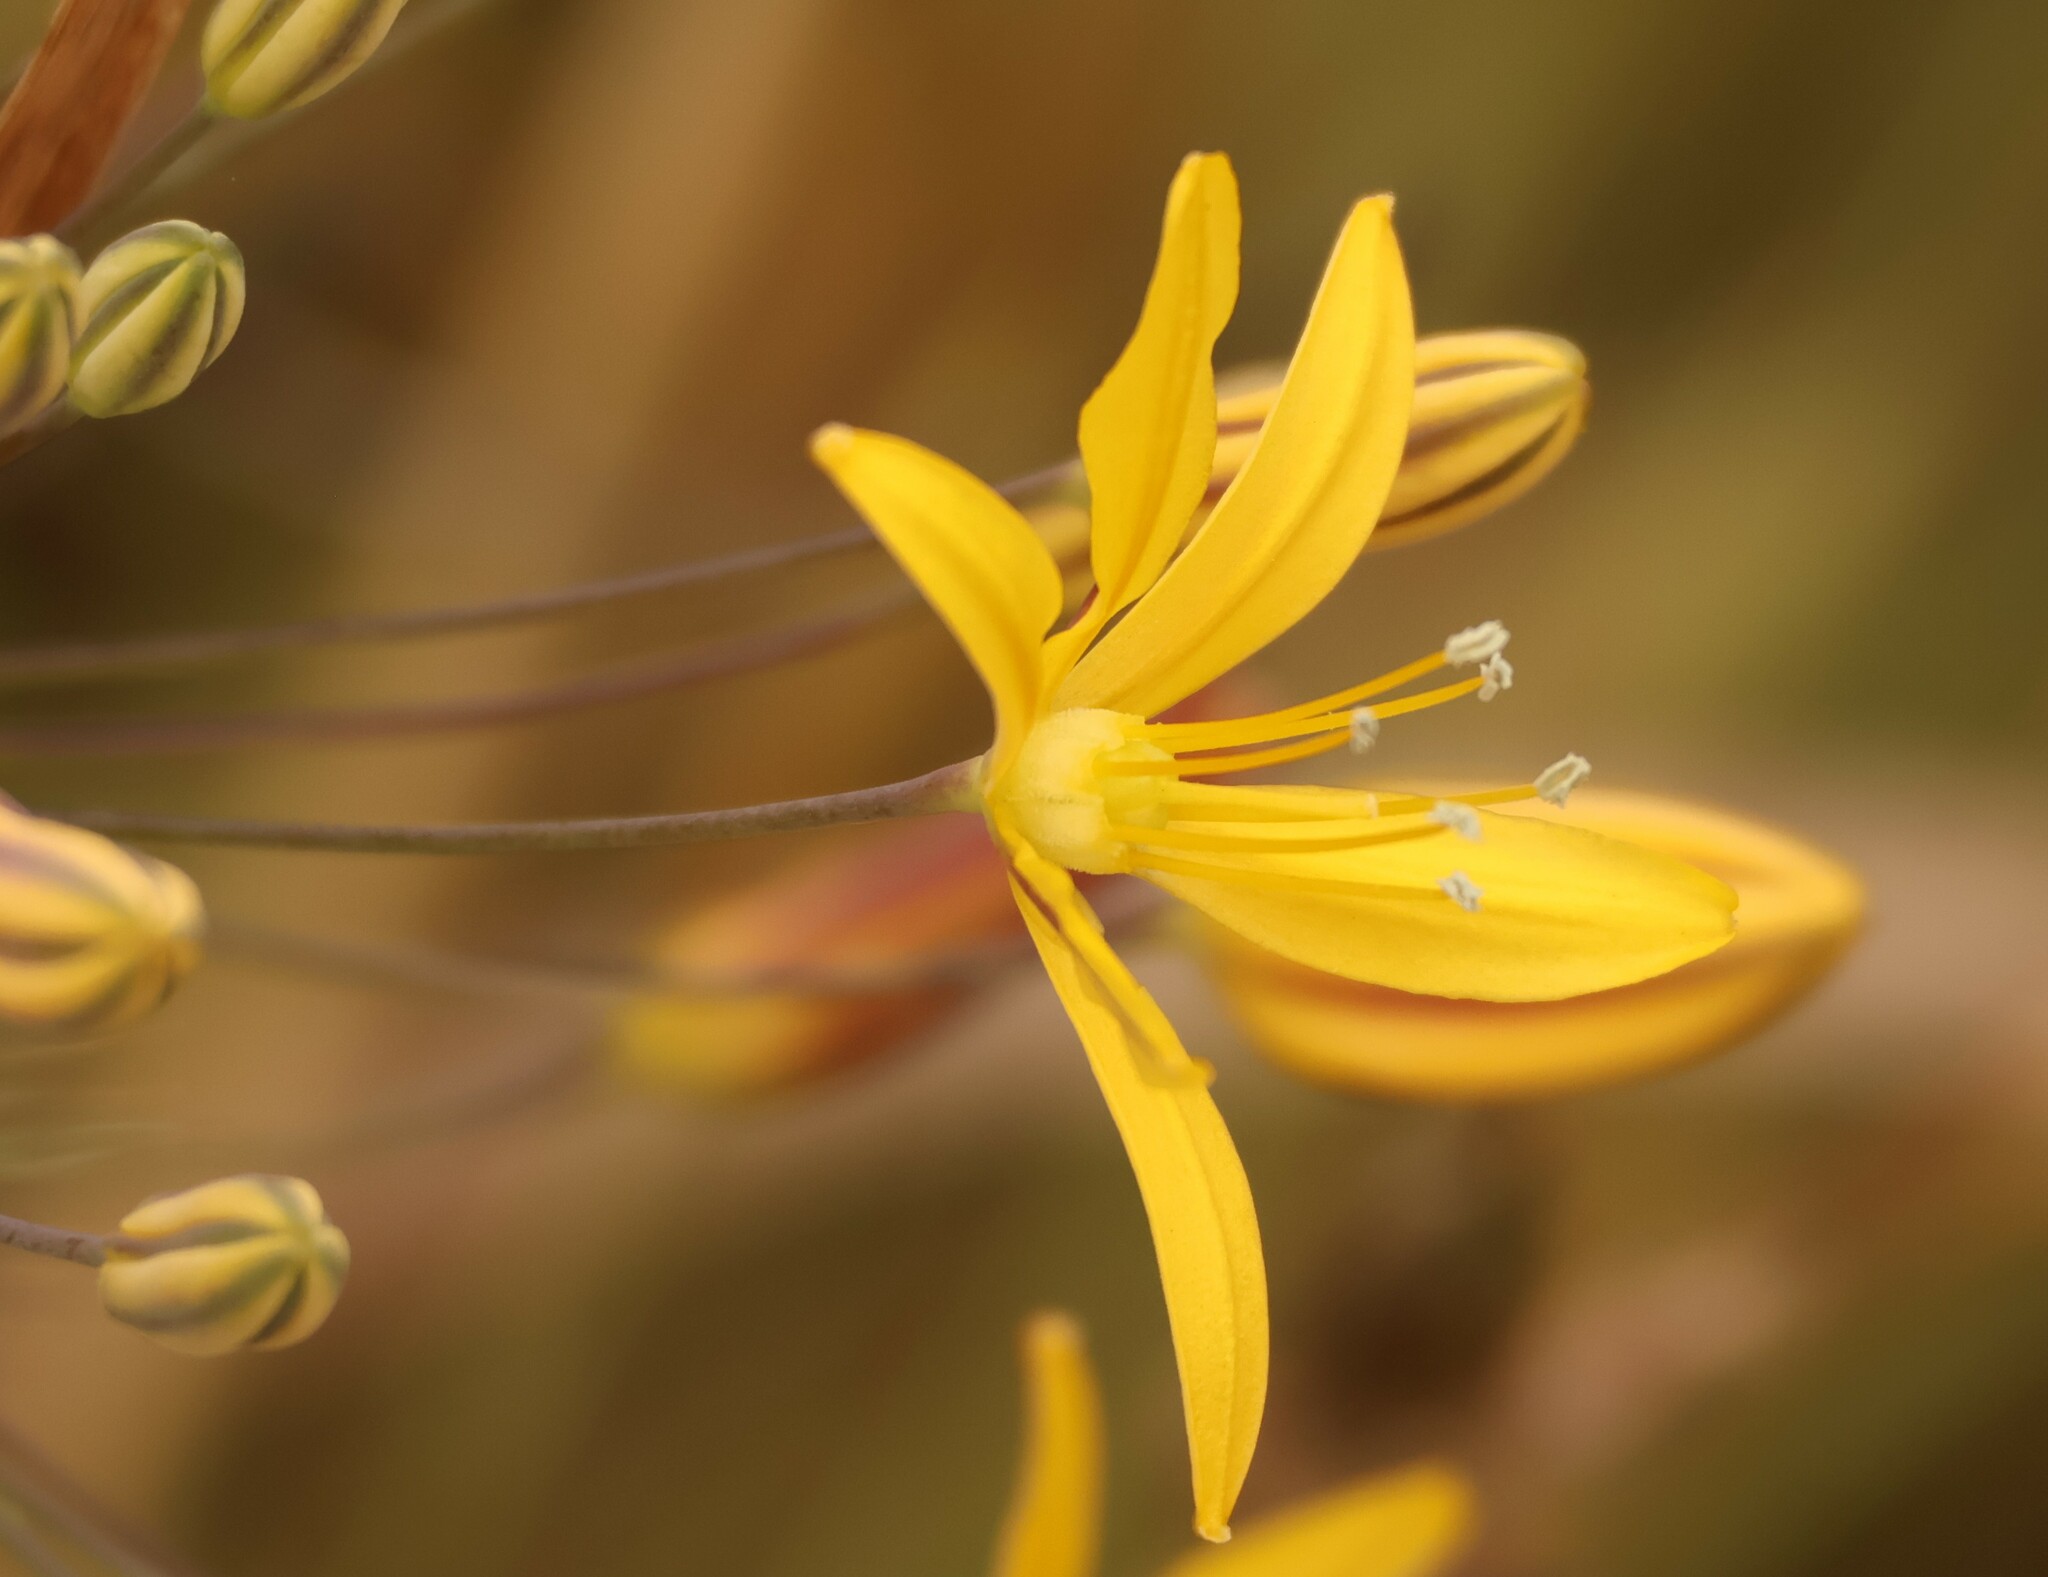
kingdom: Plantae
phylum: Tracheophyta
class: Liliopsida
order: Asparagales
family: Asparagaceae
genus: Bloomeria
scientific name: Bloomeria crocea
